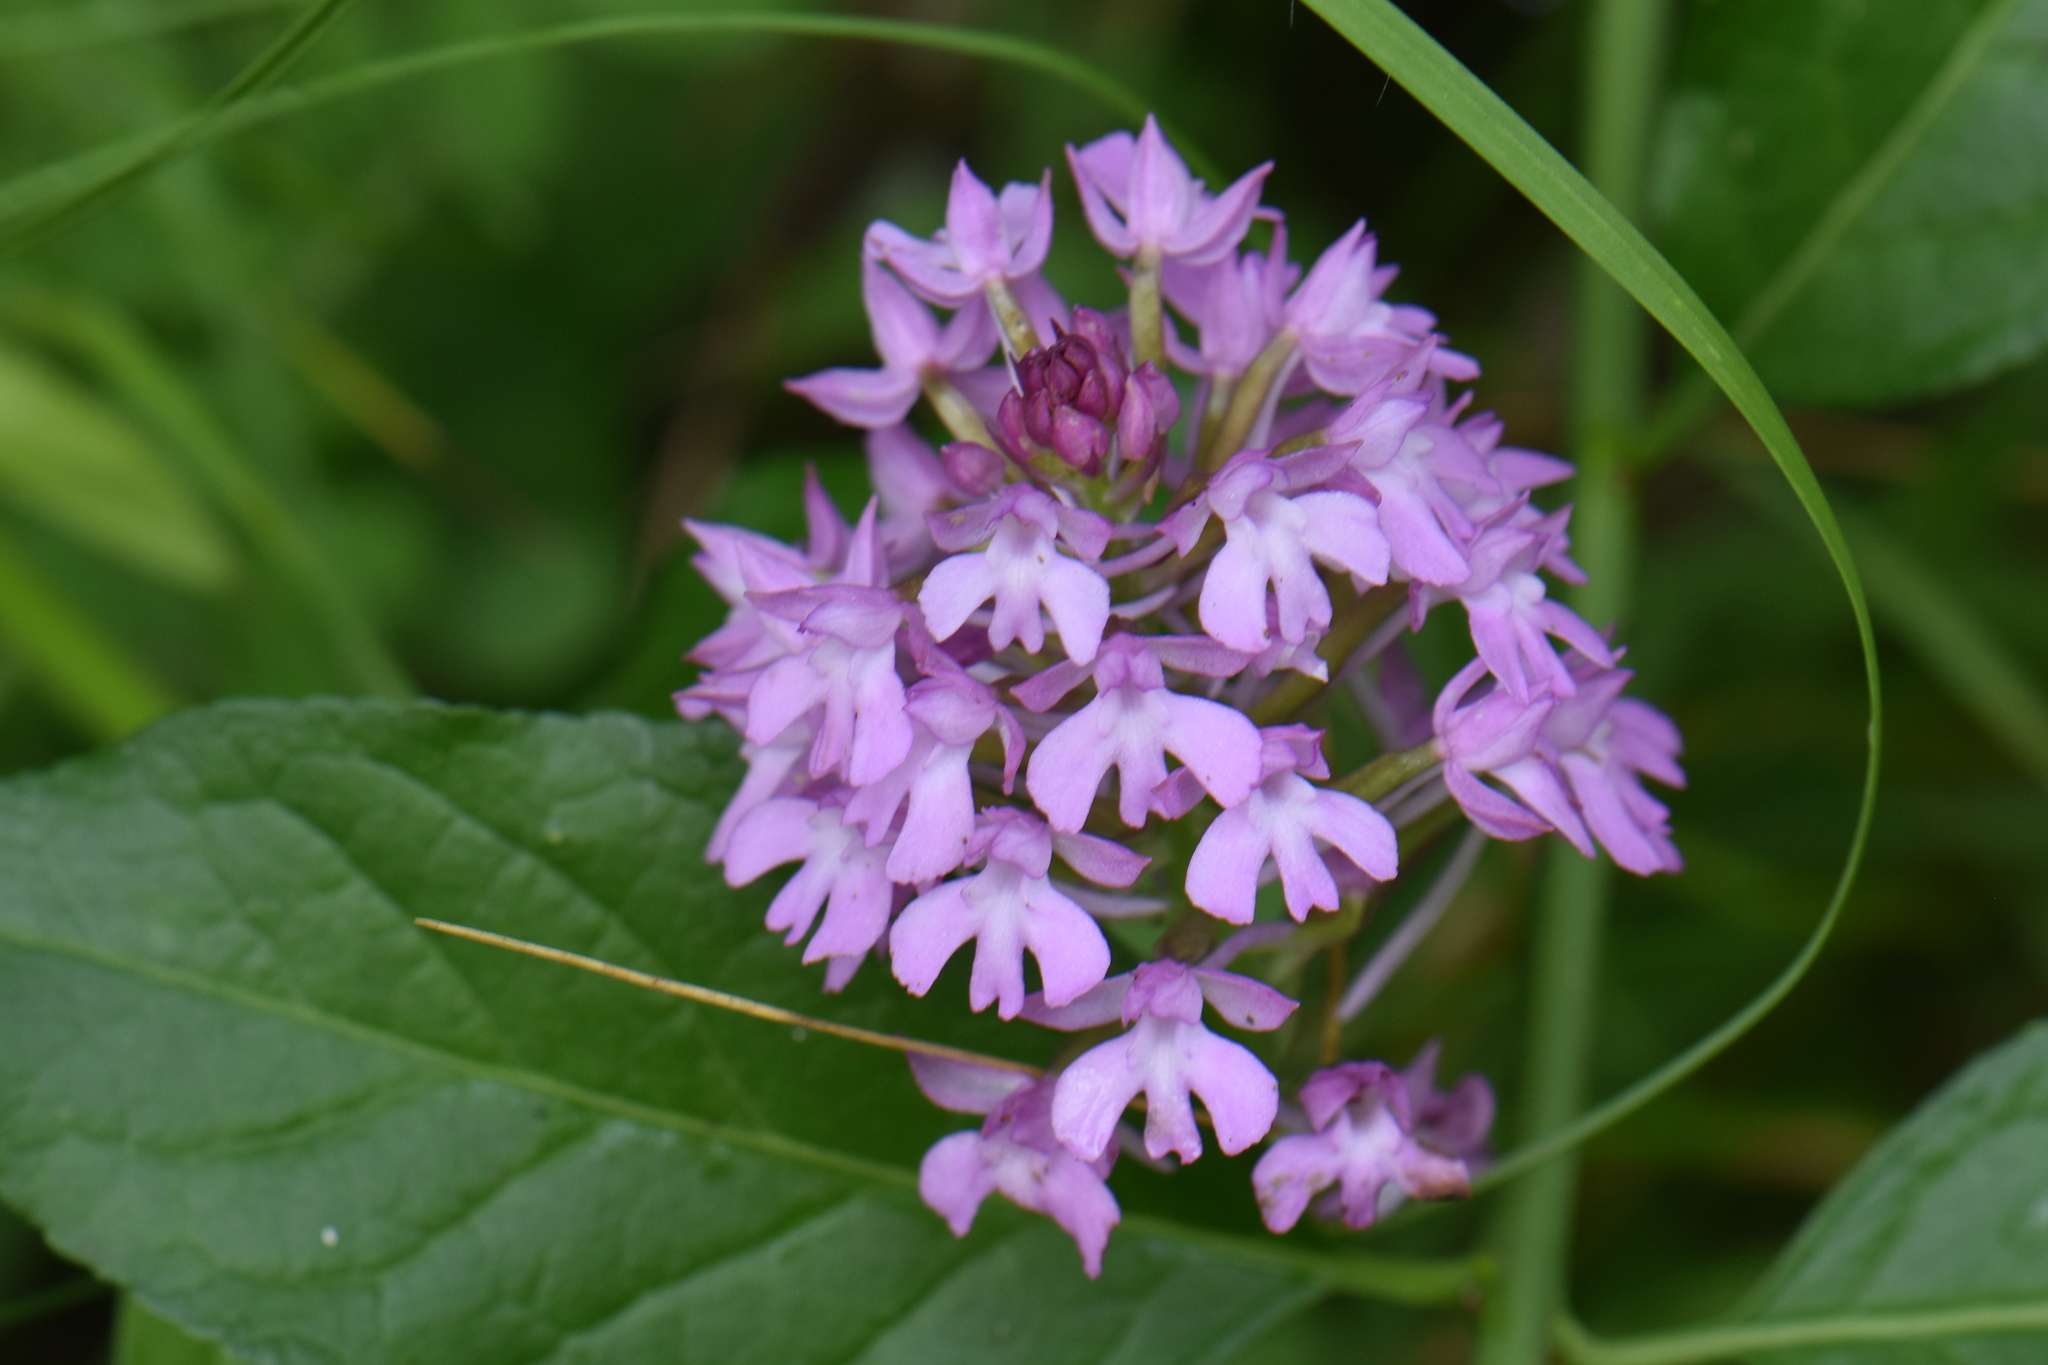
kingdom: Plantae
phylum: Tracheophyta
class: Liliopsida
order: Asparagales
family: Orchidaceae
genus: Anacamptis
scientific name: Anacamptis pyramidalis
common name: Pyramidal orchid
